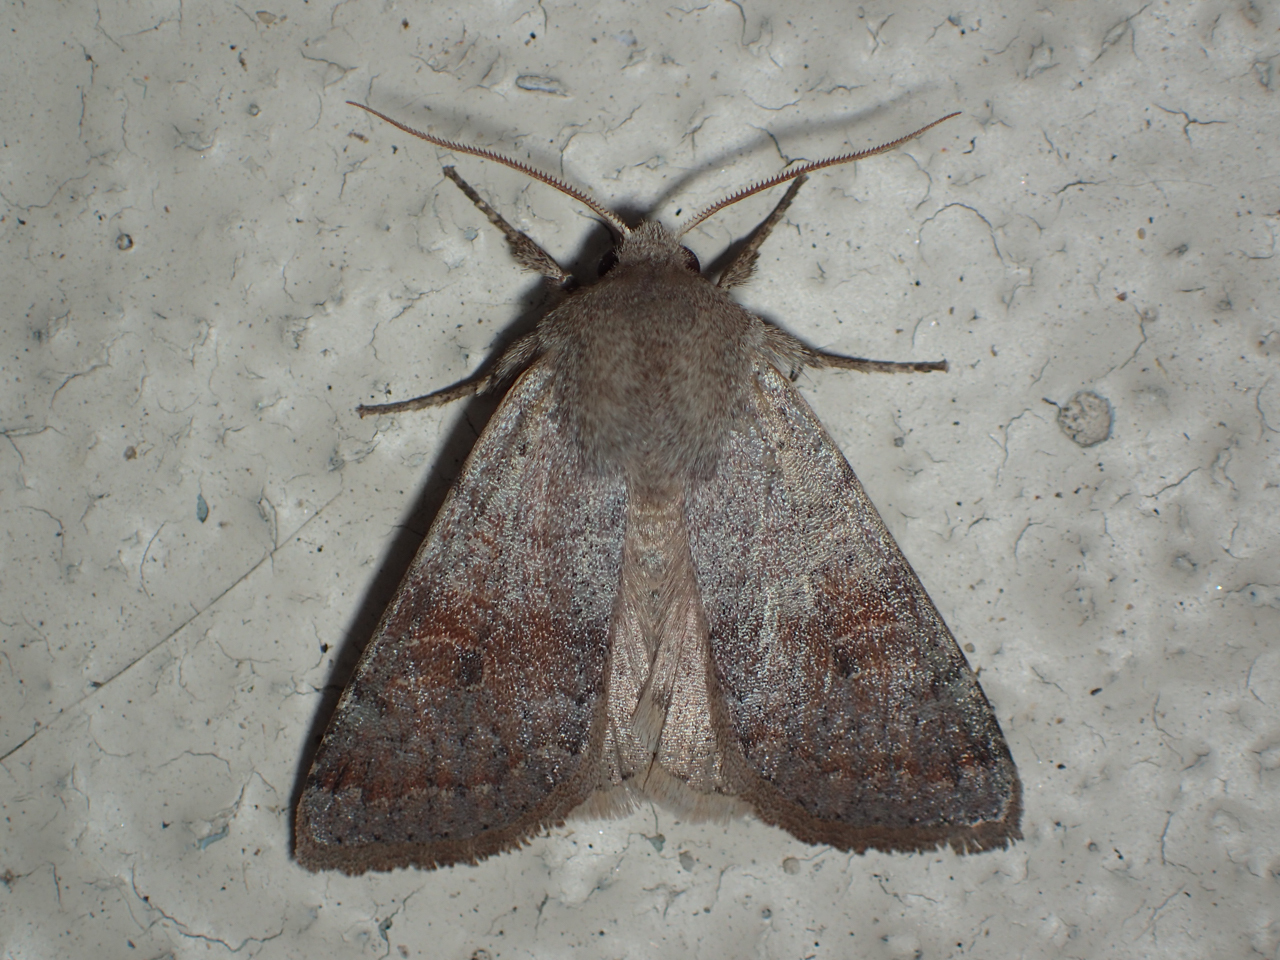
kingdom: Animalia
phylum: Arthropoda
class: Insecta
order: Lepidoptera
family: Noctuidae
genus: Orthosia
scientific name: Orthosia alurina
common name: Gray quaker
